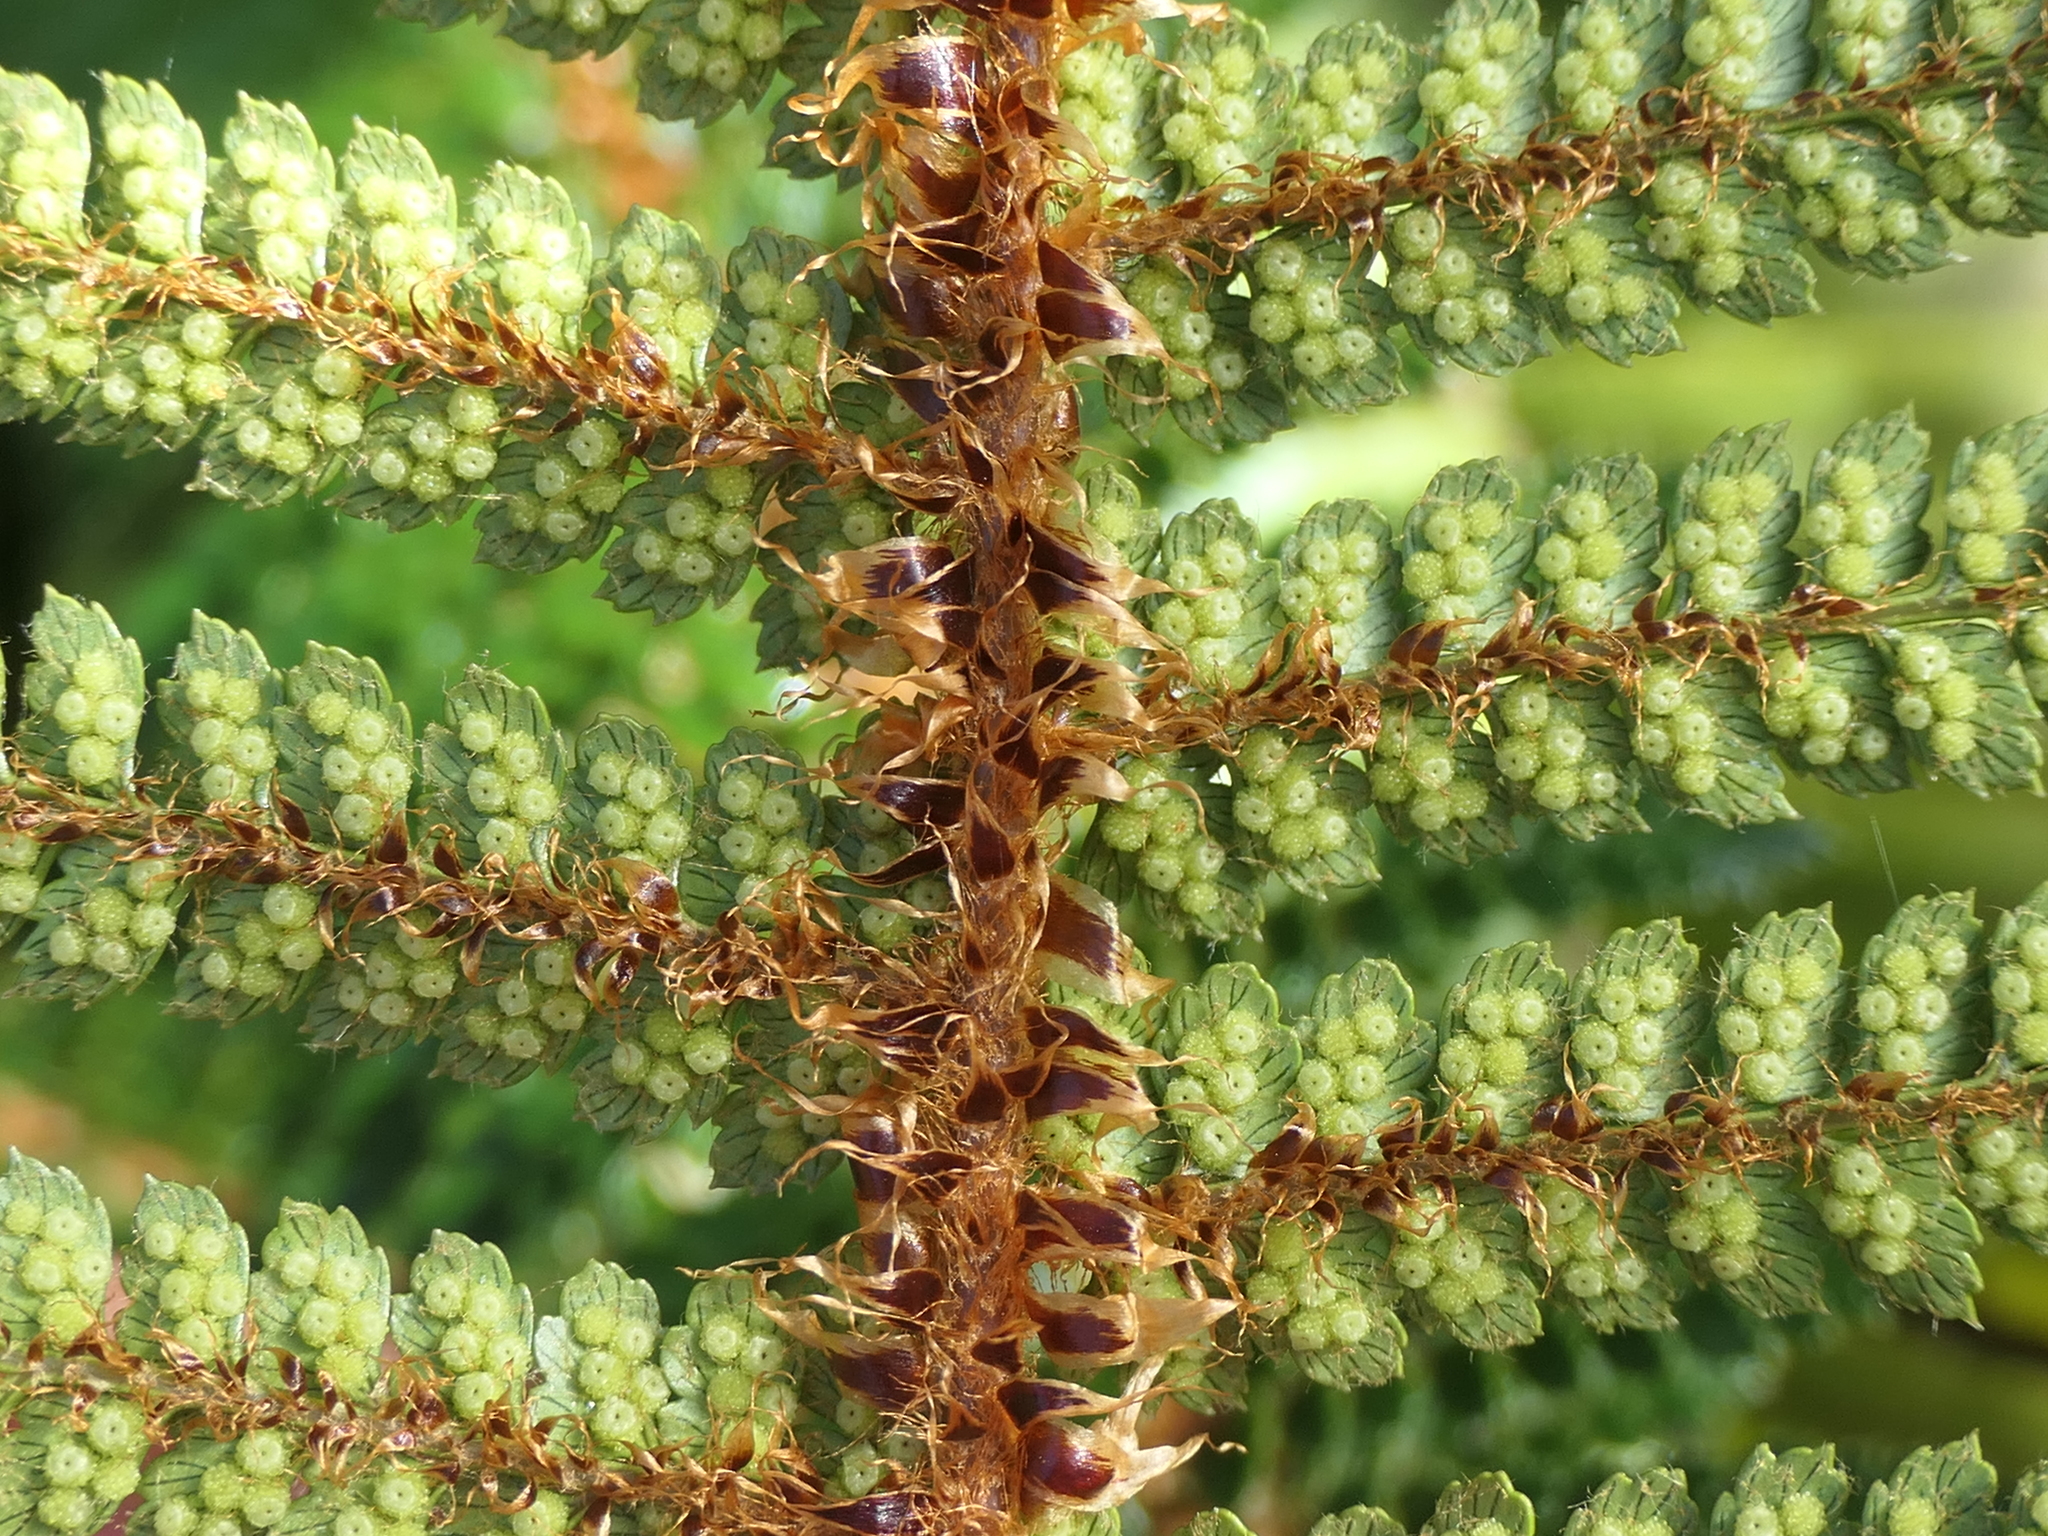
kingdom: Plantae
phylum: Tracheophyta
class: Polypodiopsida
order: Polypodiales
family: Dryopteridaceae
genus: Polystichum
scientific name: Polystichum vestitum
